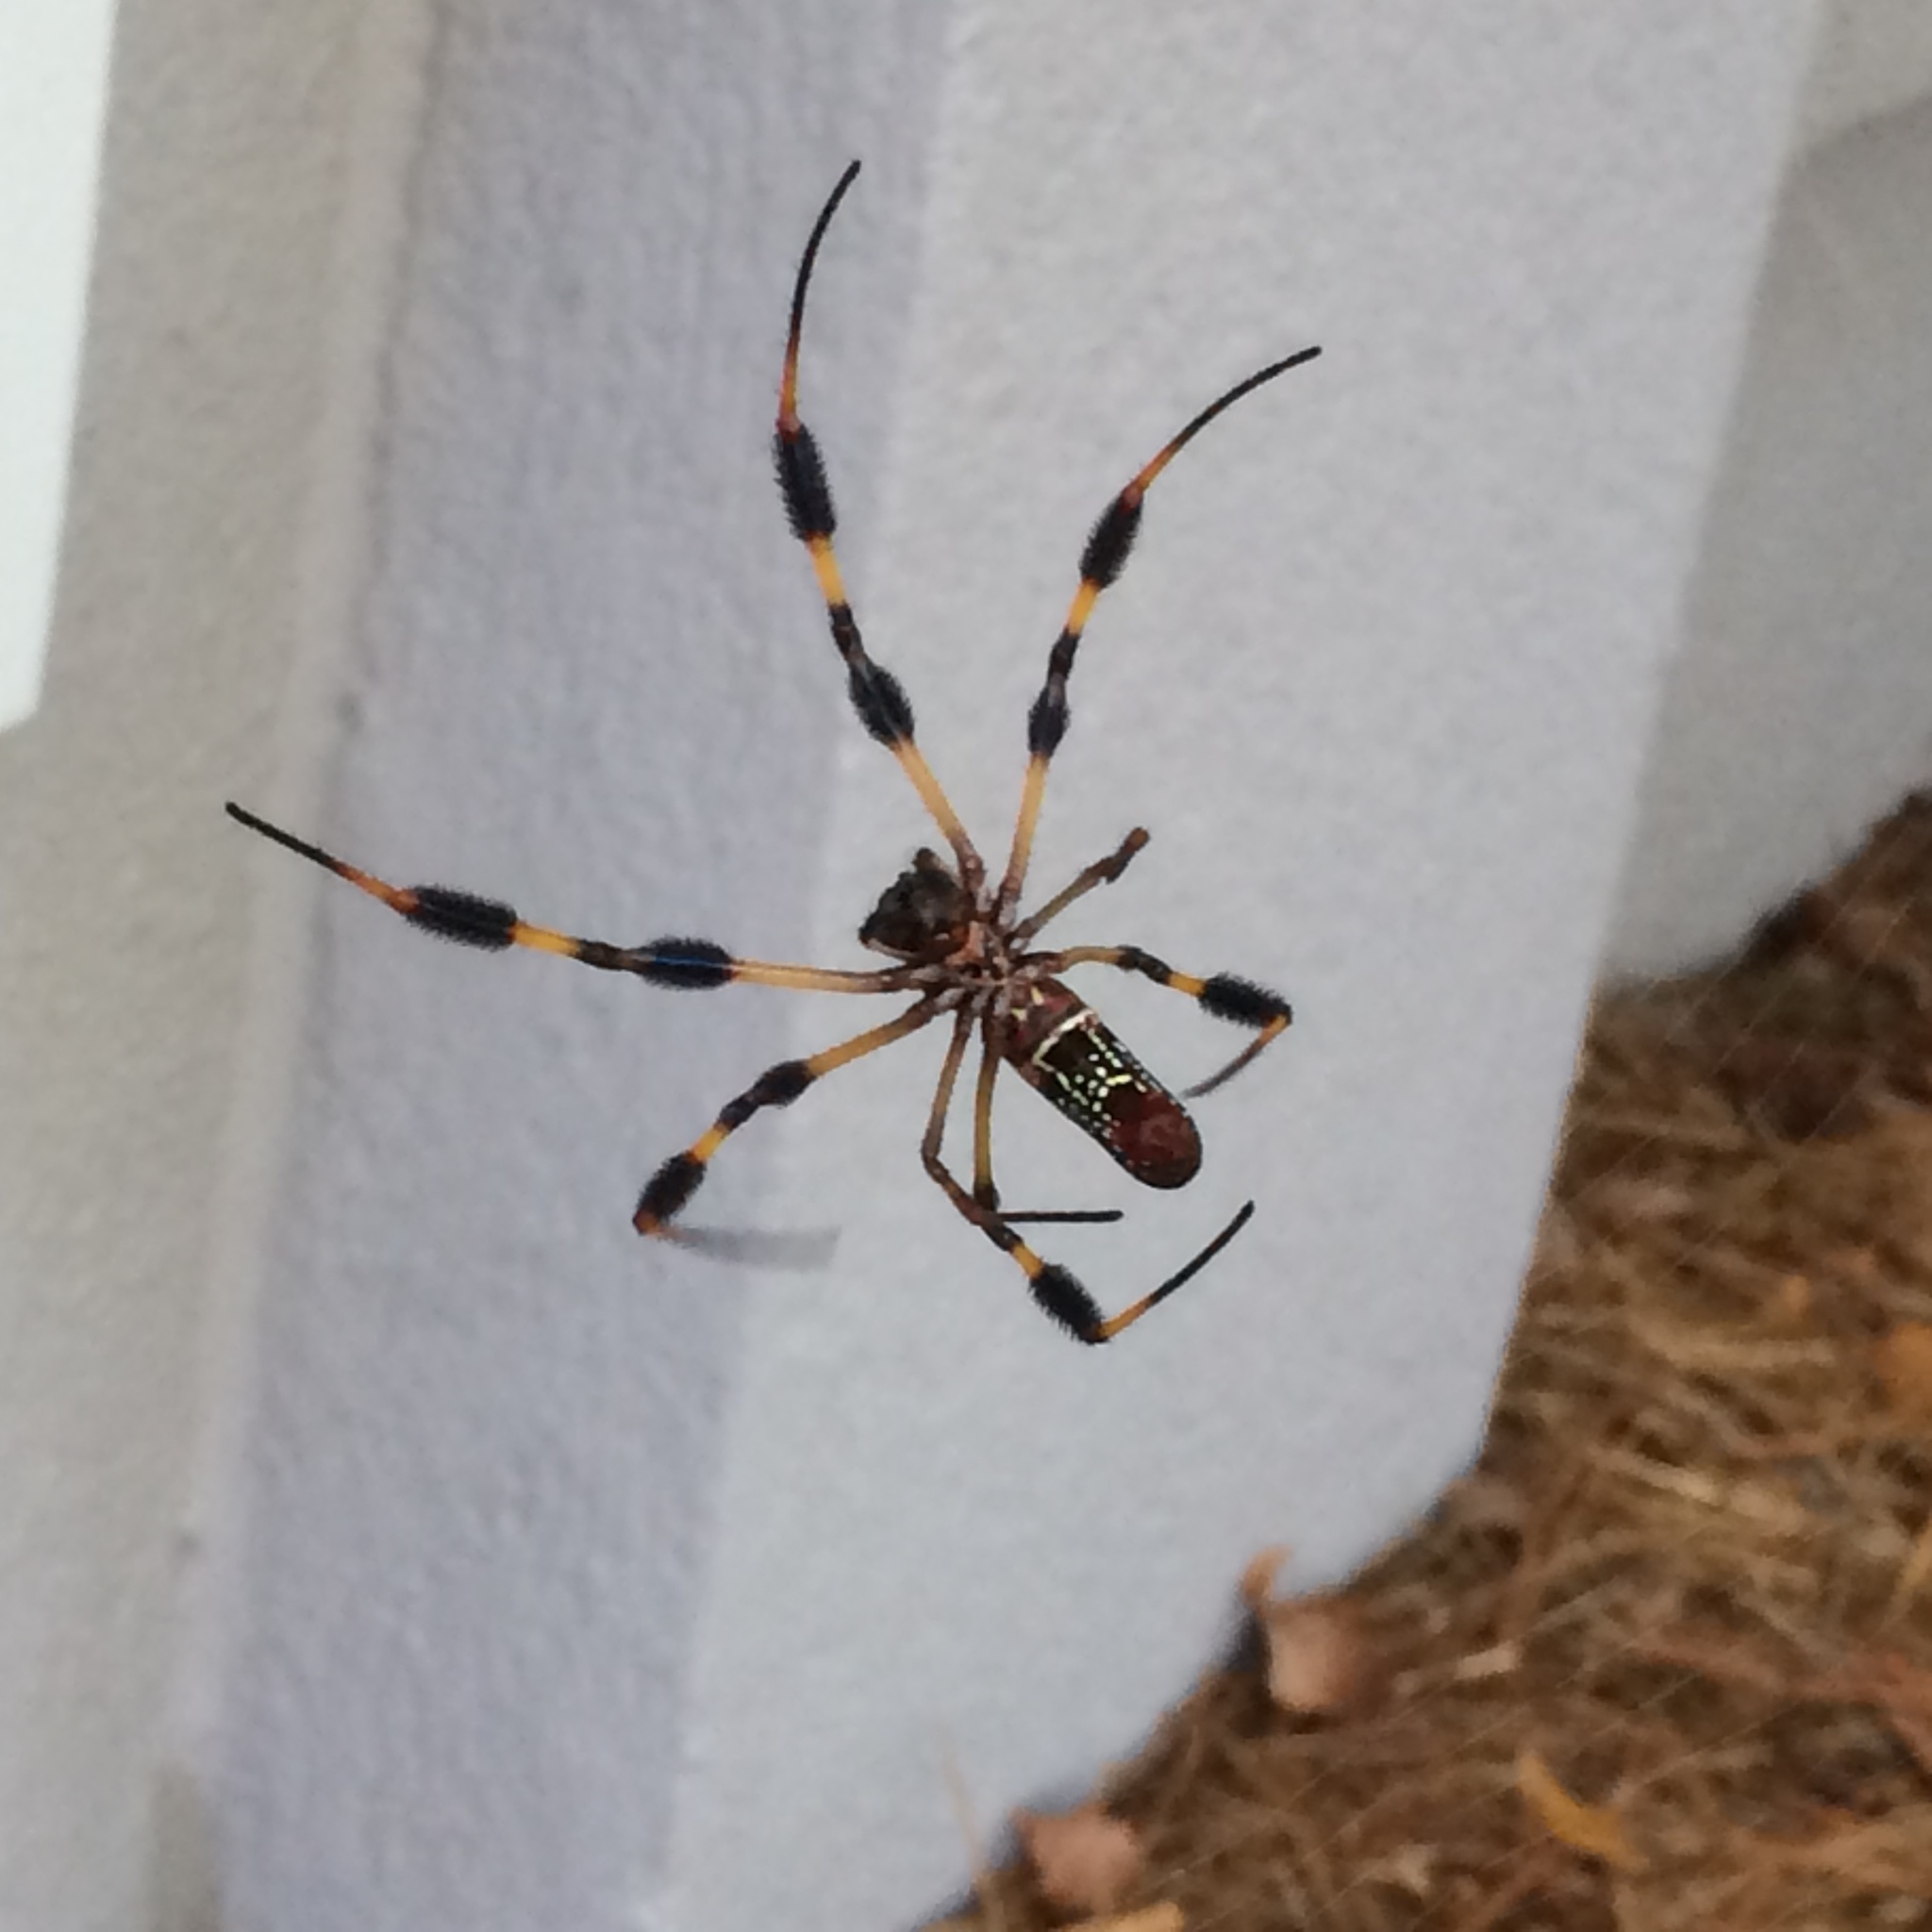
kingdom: Animalia
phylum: Arthropoda
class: Arachnida
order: Araneae
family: Araneidae
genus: Trichonephila
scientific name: Trichonephila clavipes
